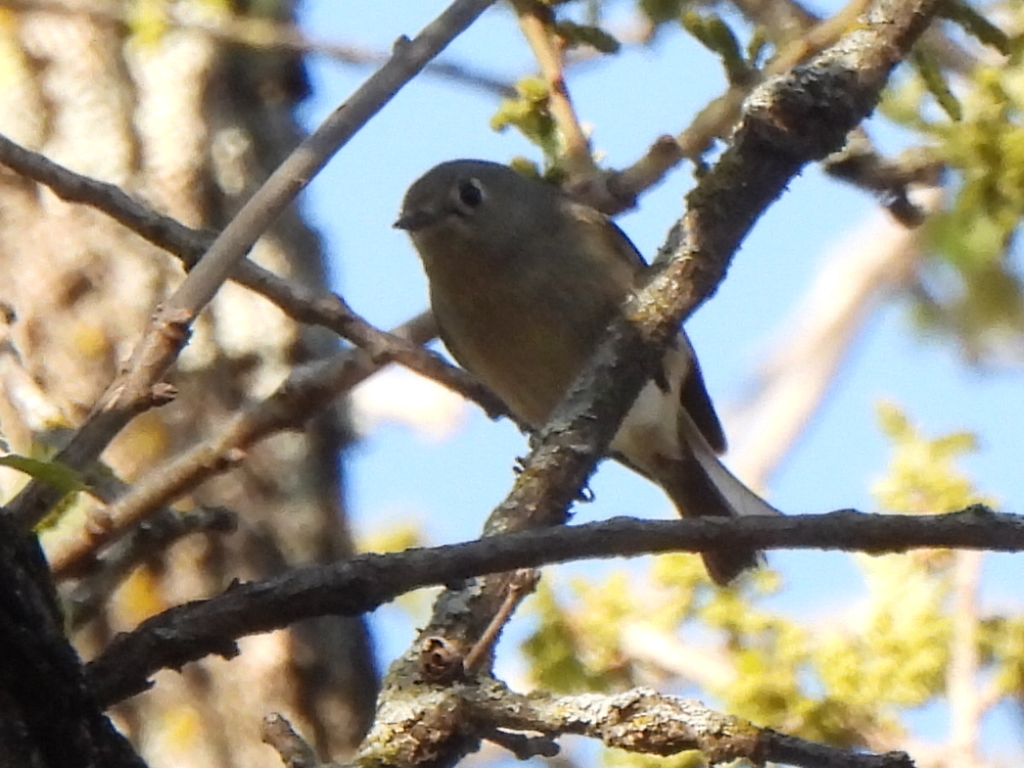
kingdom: Animalia
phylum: Chordata
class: Aves
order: Passeriformes
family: Regulidae
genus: Regulus
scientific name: Regulus calendula
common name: Ruby-crowned kinglet
